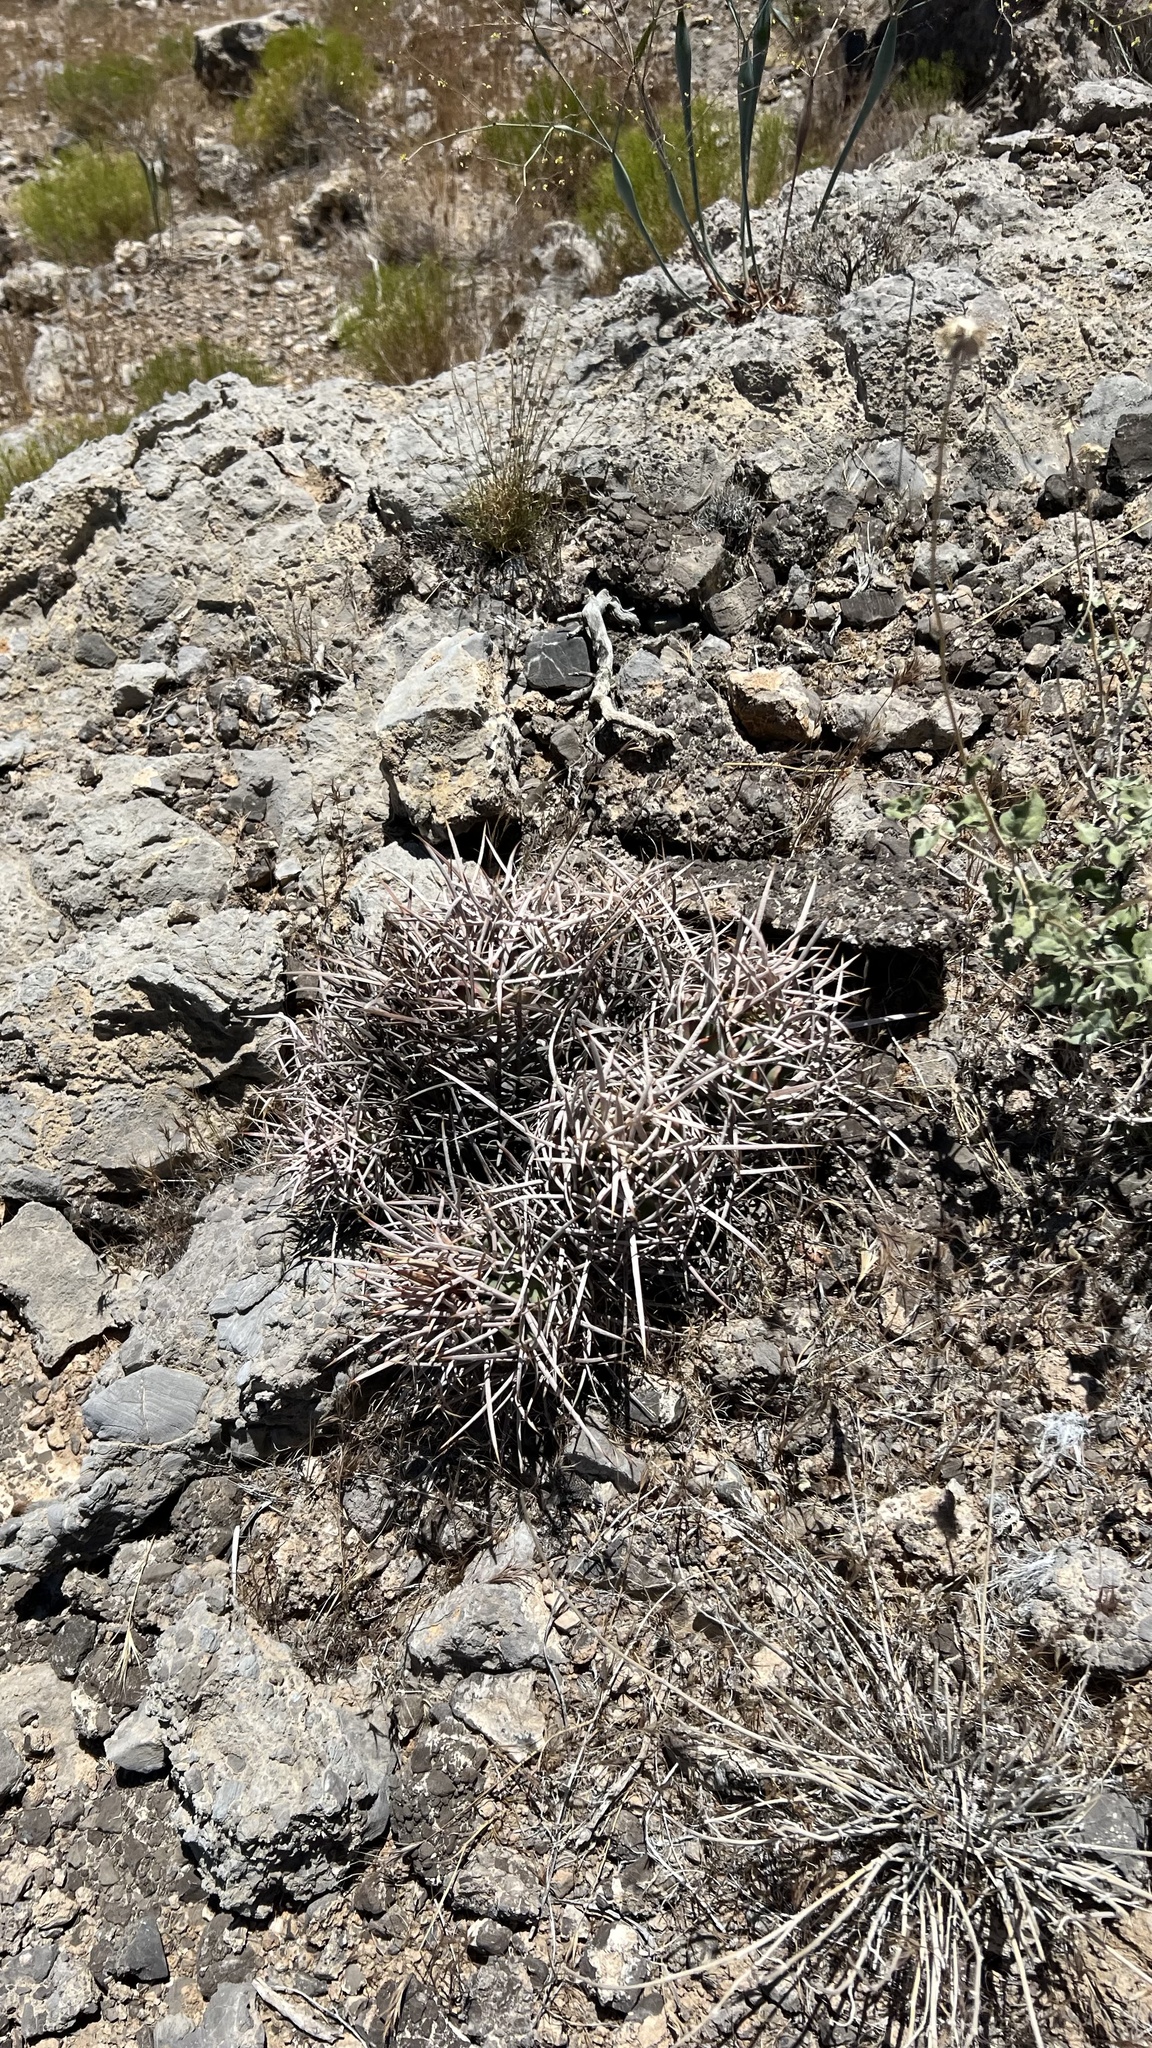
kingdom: Plantae
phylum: Tracheophyta
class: Magnoliopsida
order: Caryophyllales
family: Cactaceae
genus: Echinocactus
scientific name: Echinocactus polycephalus
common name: Cottontop cactus
